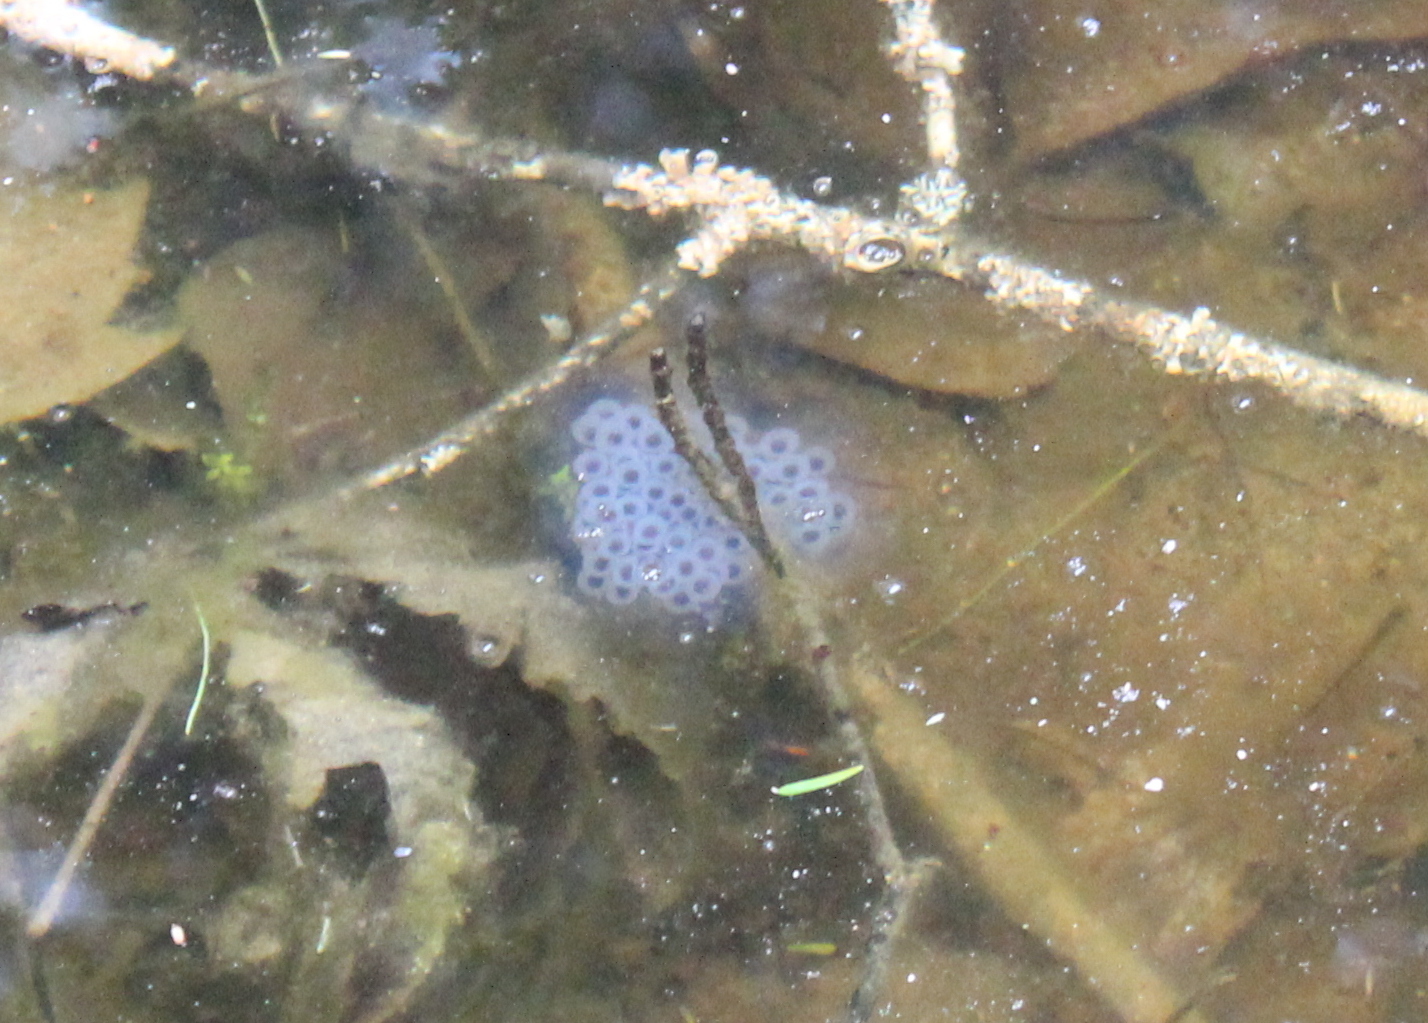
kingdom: Animalia
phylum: Chordata
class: Amphibia
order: Caudata
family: Ambystomatidae
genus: Ambystoma
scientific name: Ambystoma maculatum
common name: Spotted salamander
